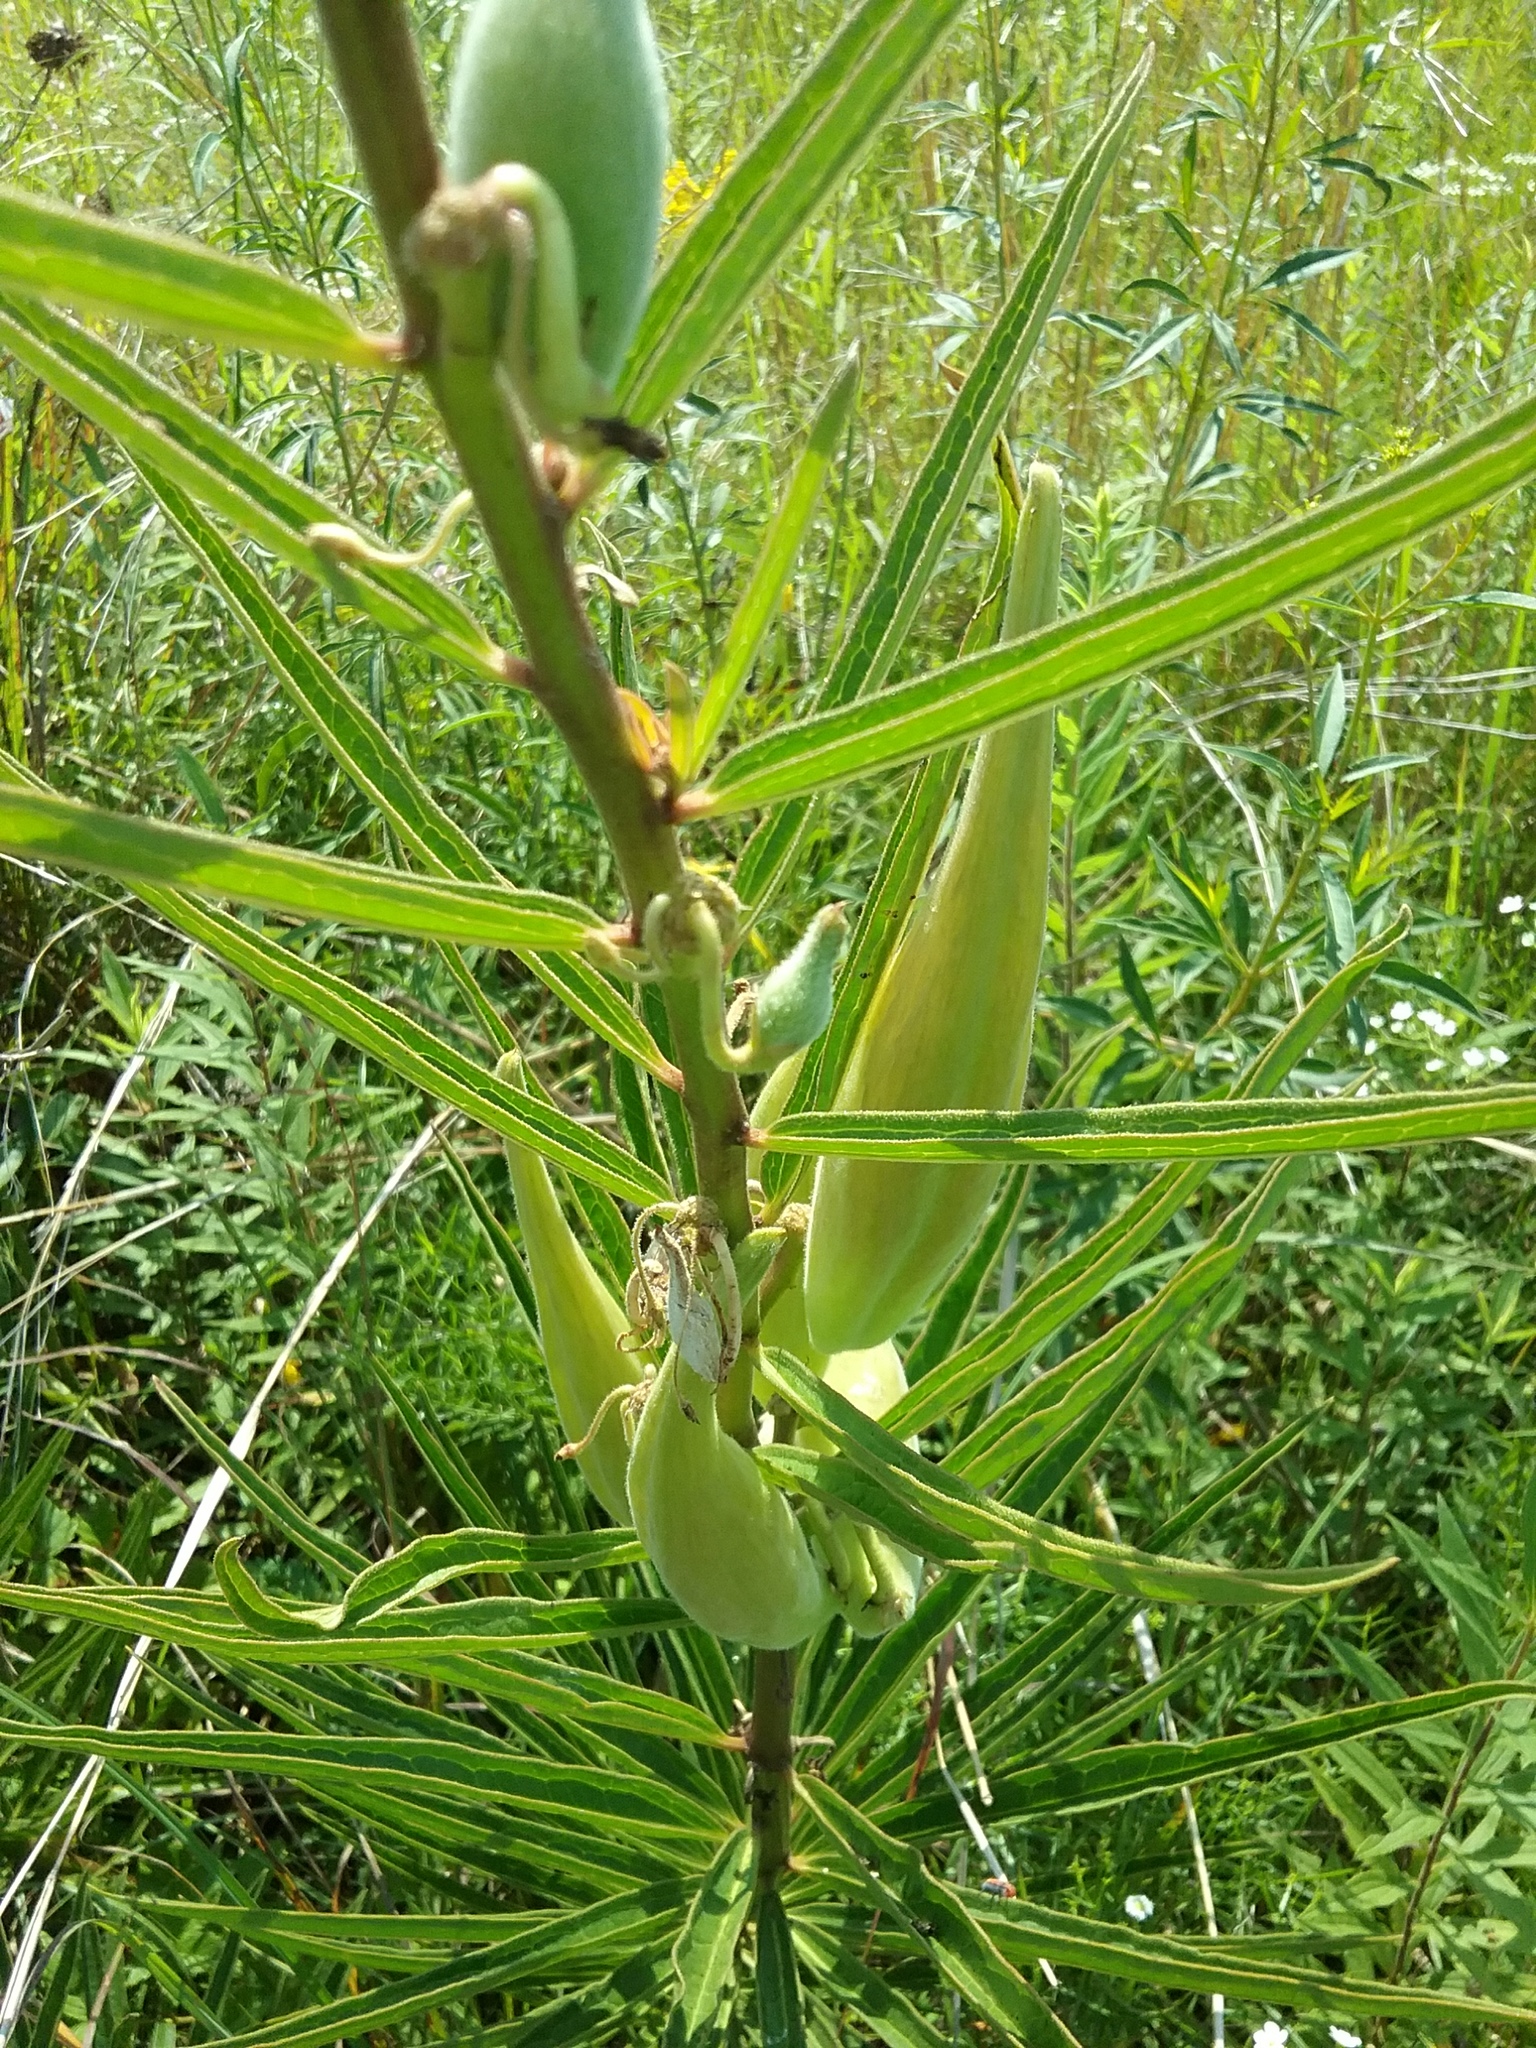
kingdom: Plantae
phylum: Tracheophyta
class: Magnoliopsida
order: Gentianales
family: Apocynaceae
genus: Asclepias
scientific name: Asclepias hirtella
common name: Prairie milkweed
